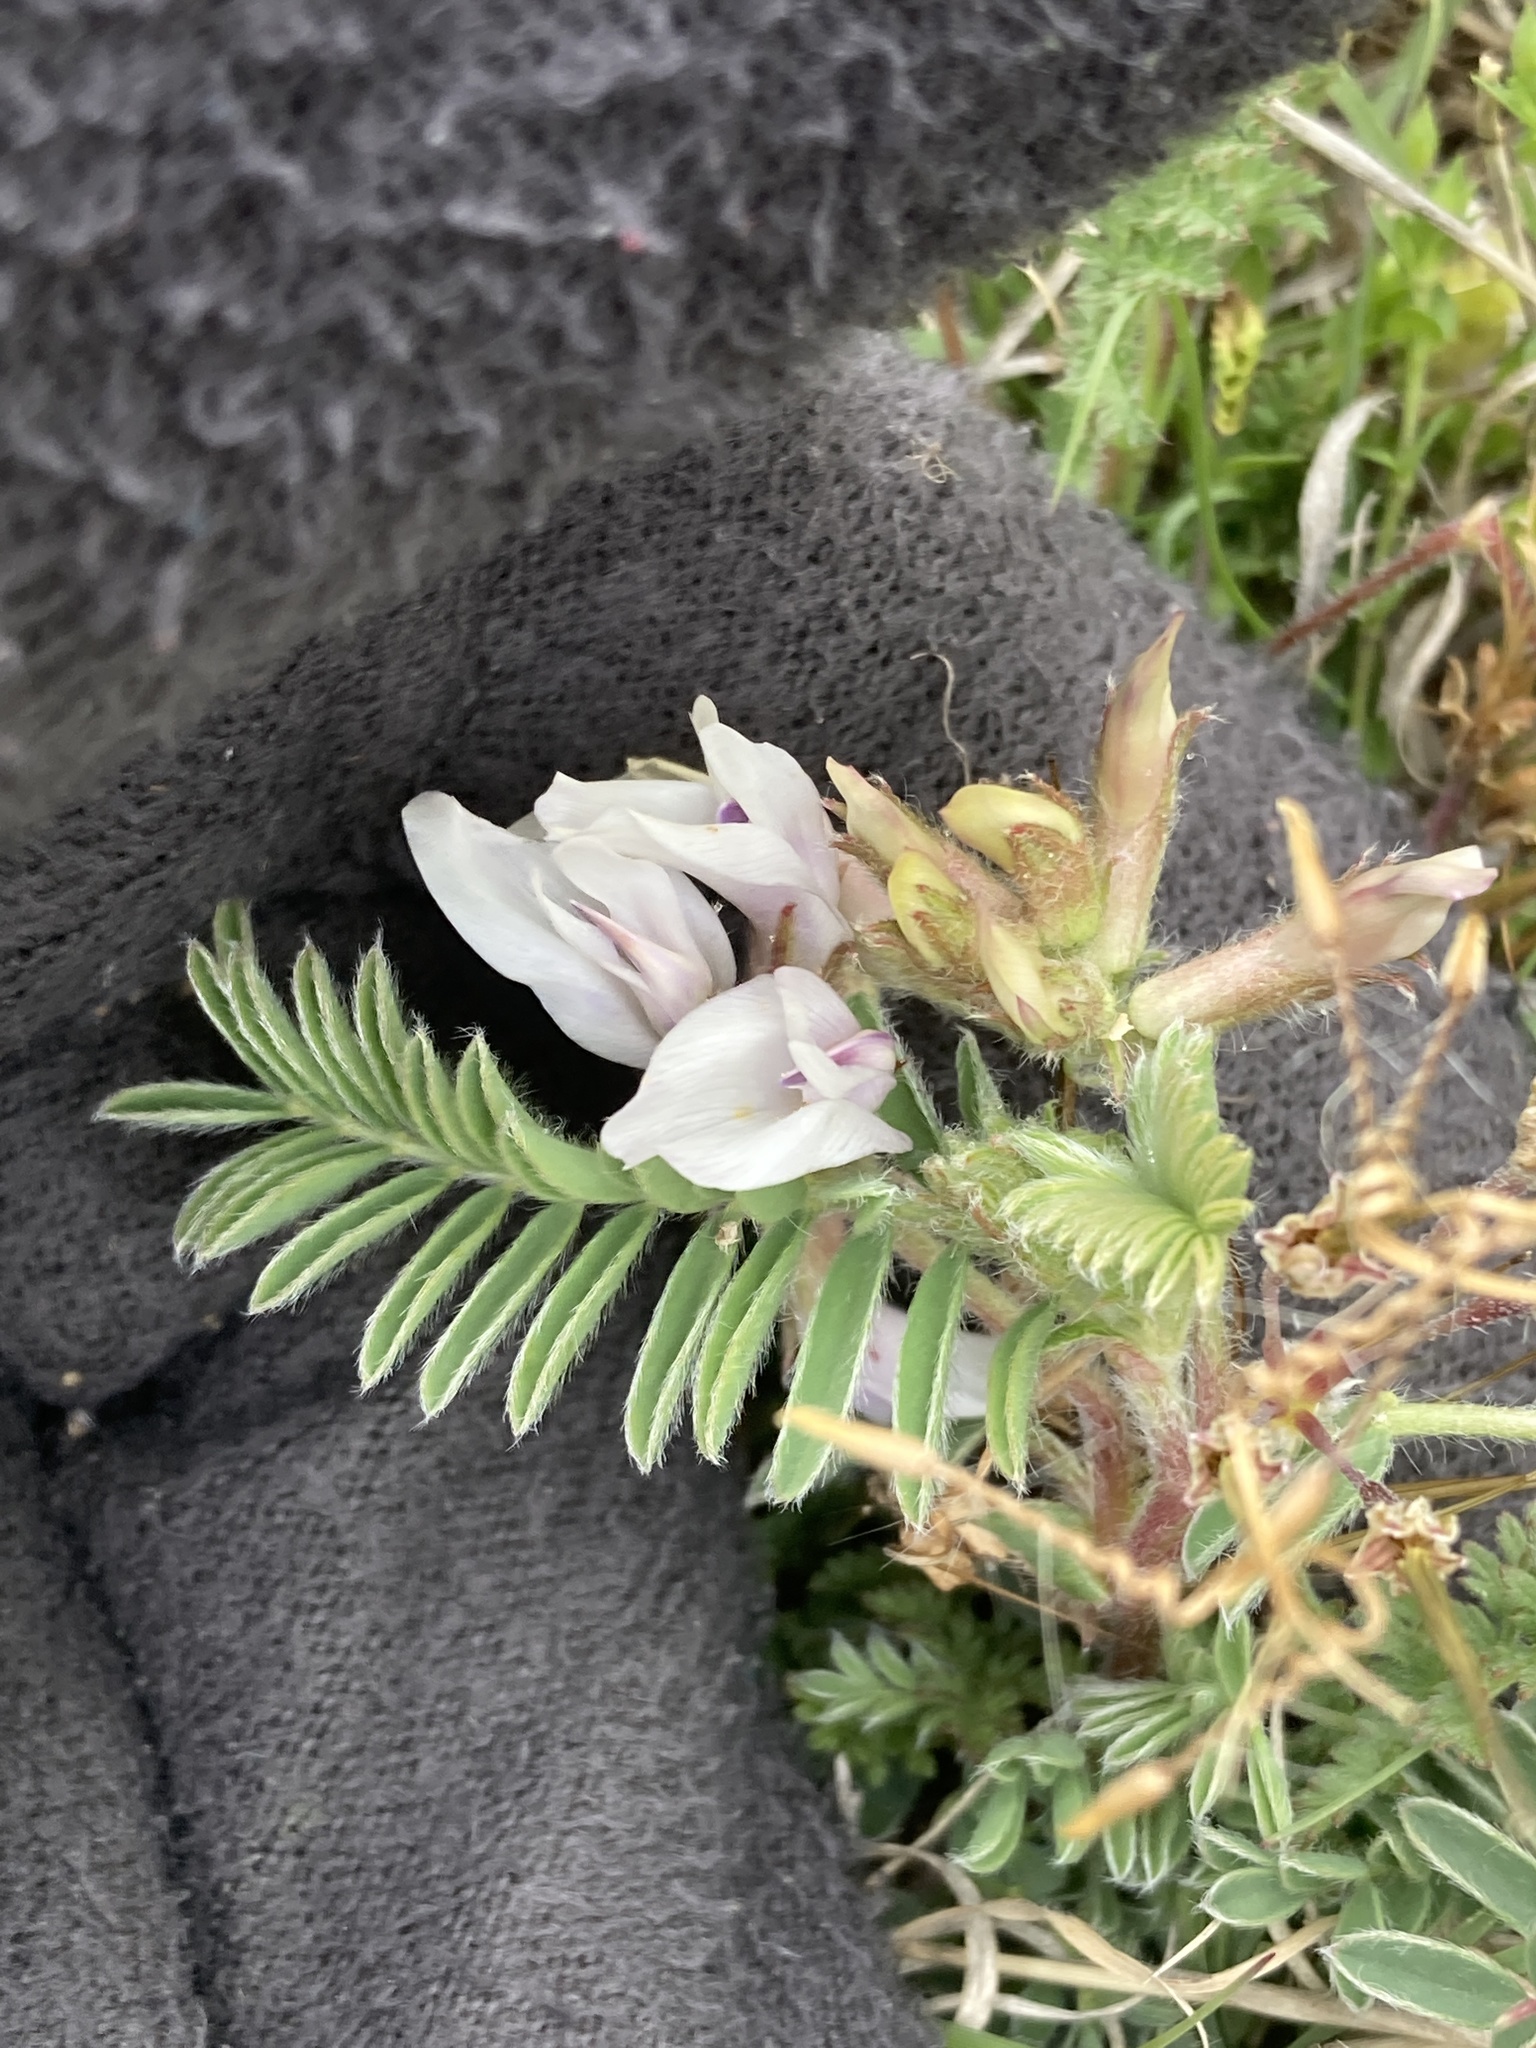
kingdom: Plantae
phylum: Tracheophyta
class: Magnoliopsida
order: Fabales
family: Fabaceae
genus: Astragalus
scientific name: Astragalus plattensis
